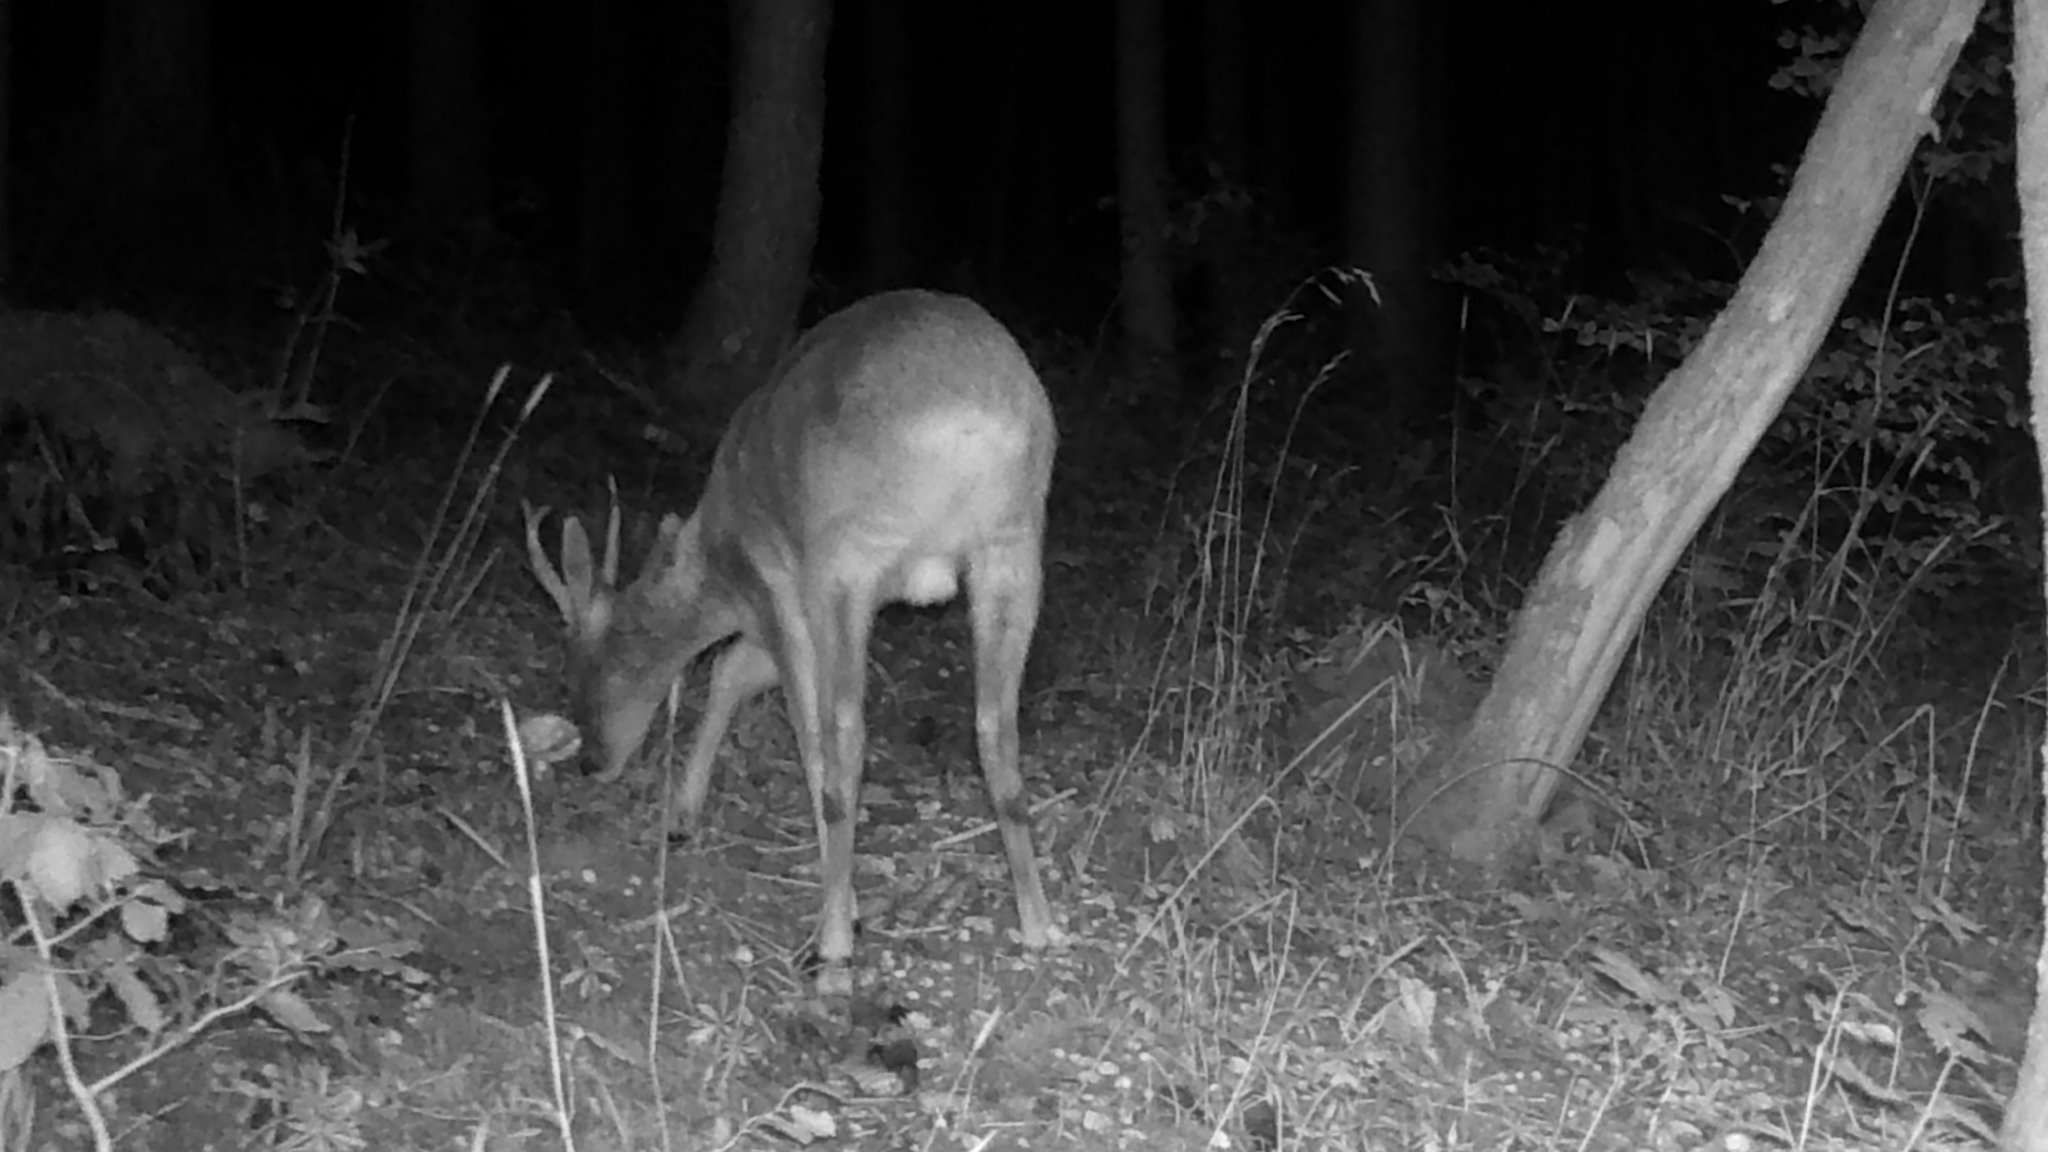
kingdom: Animalia
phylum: Chordata
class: Mammalia
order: Artiodactyla
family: Cervidae
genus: Capreolus
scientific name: Capreolus capreolus
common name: Western roe deer
